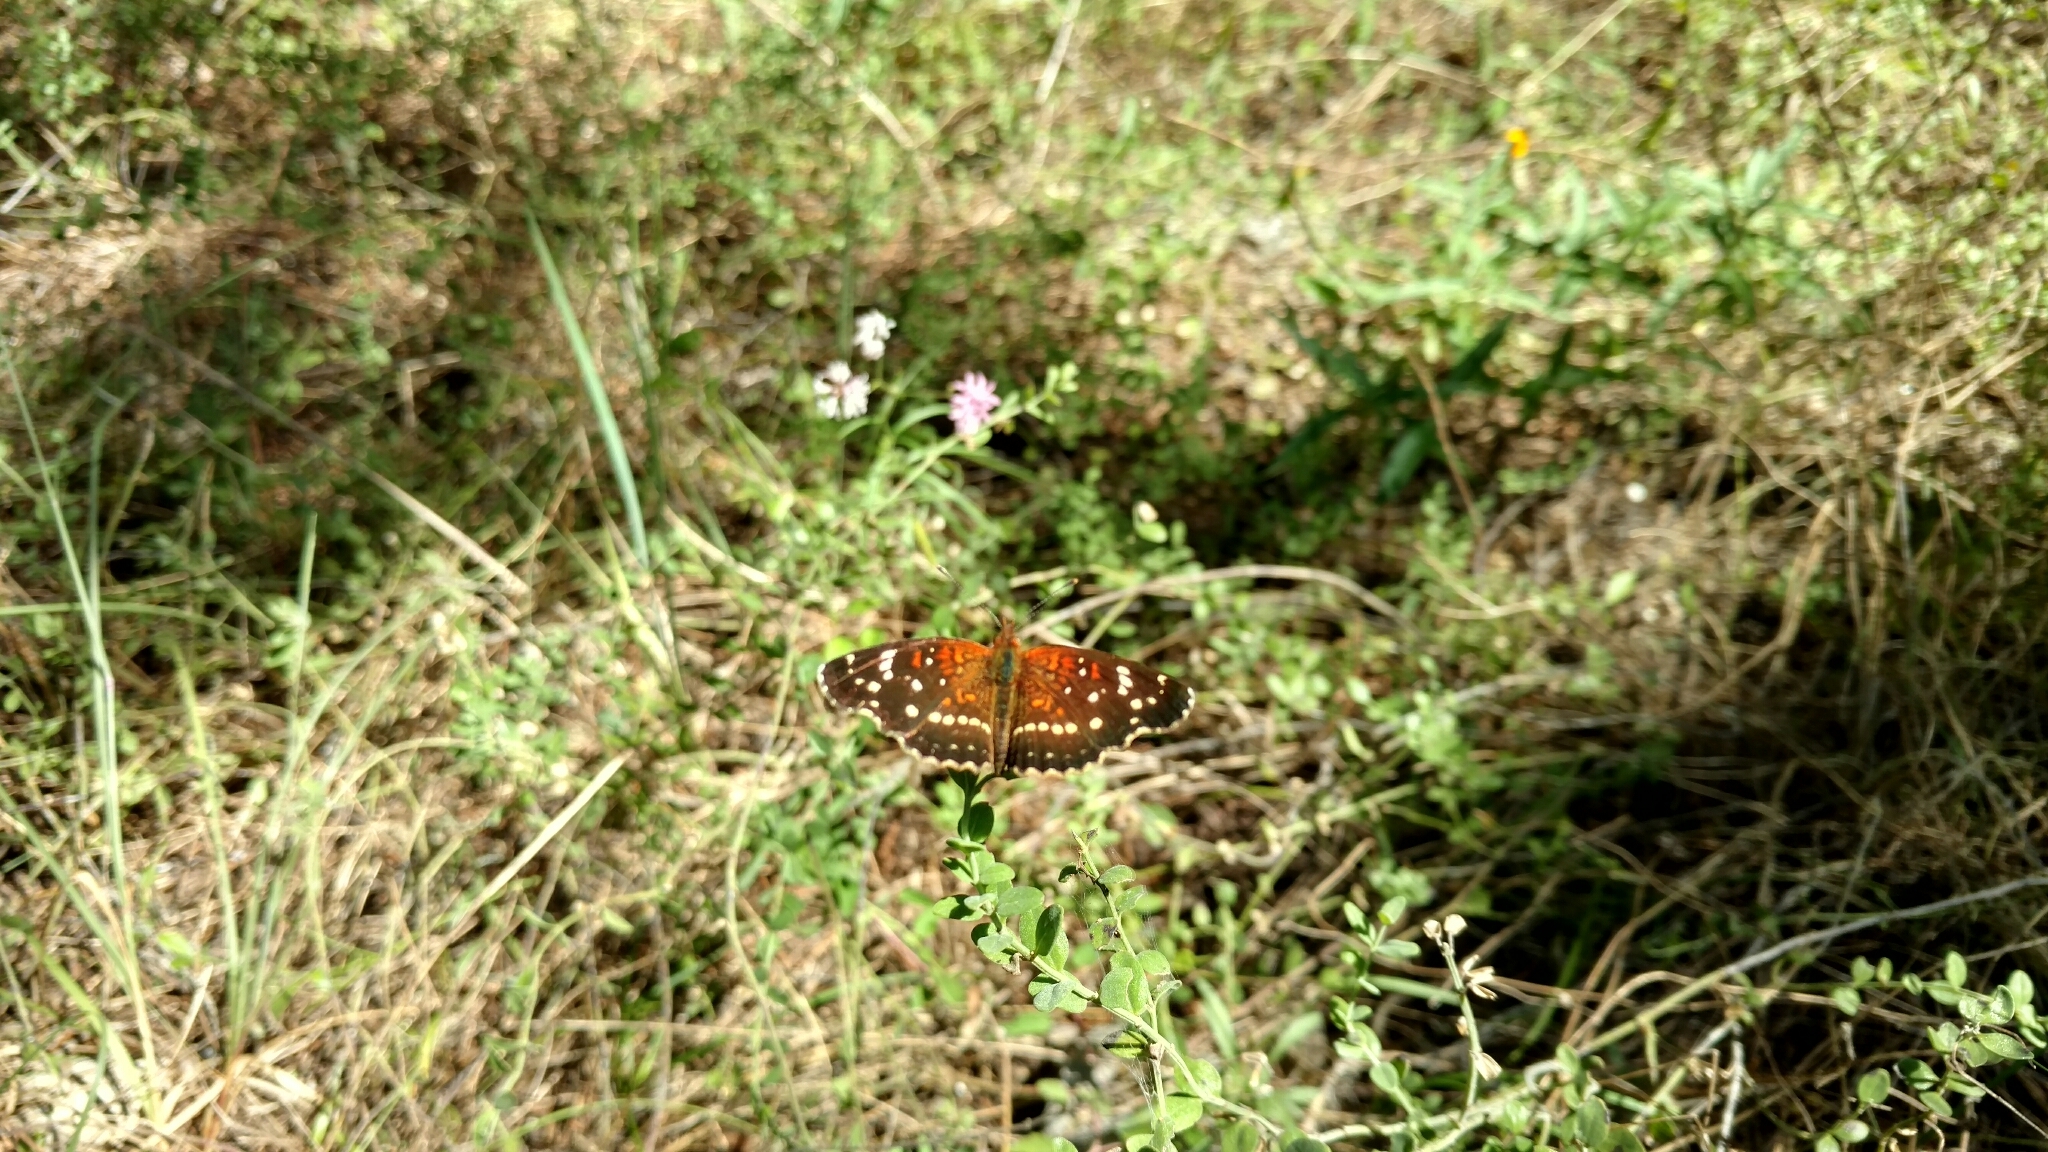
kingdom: Animalia
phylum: Arthropoda
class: Insecta
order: Lepidoptera
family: Nymphalidae
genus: Anthanassa
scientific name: Anthanassa texana
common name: Texan crescent
